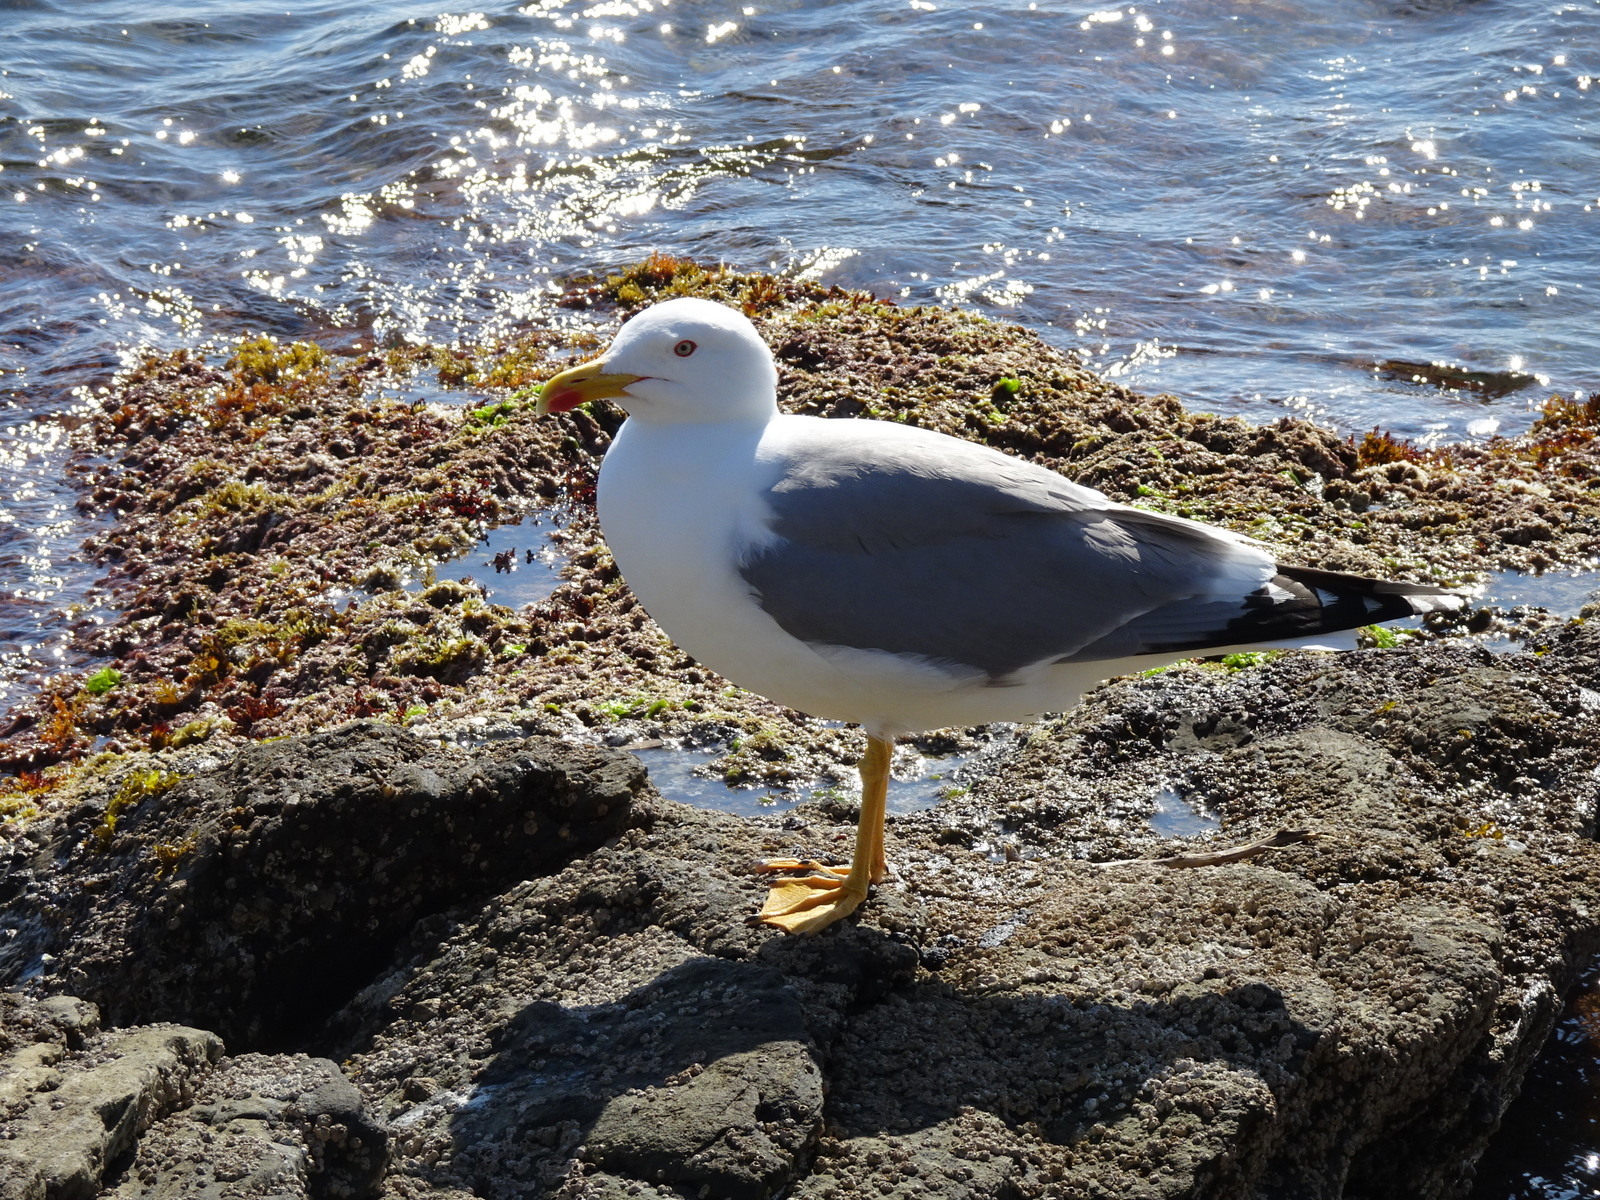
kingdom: Animalia
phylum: Chordata
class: Aves
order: Charadriiformes
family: Laridae
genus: Larus
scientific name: Larus michahellis
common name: Yellow-legged gull
